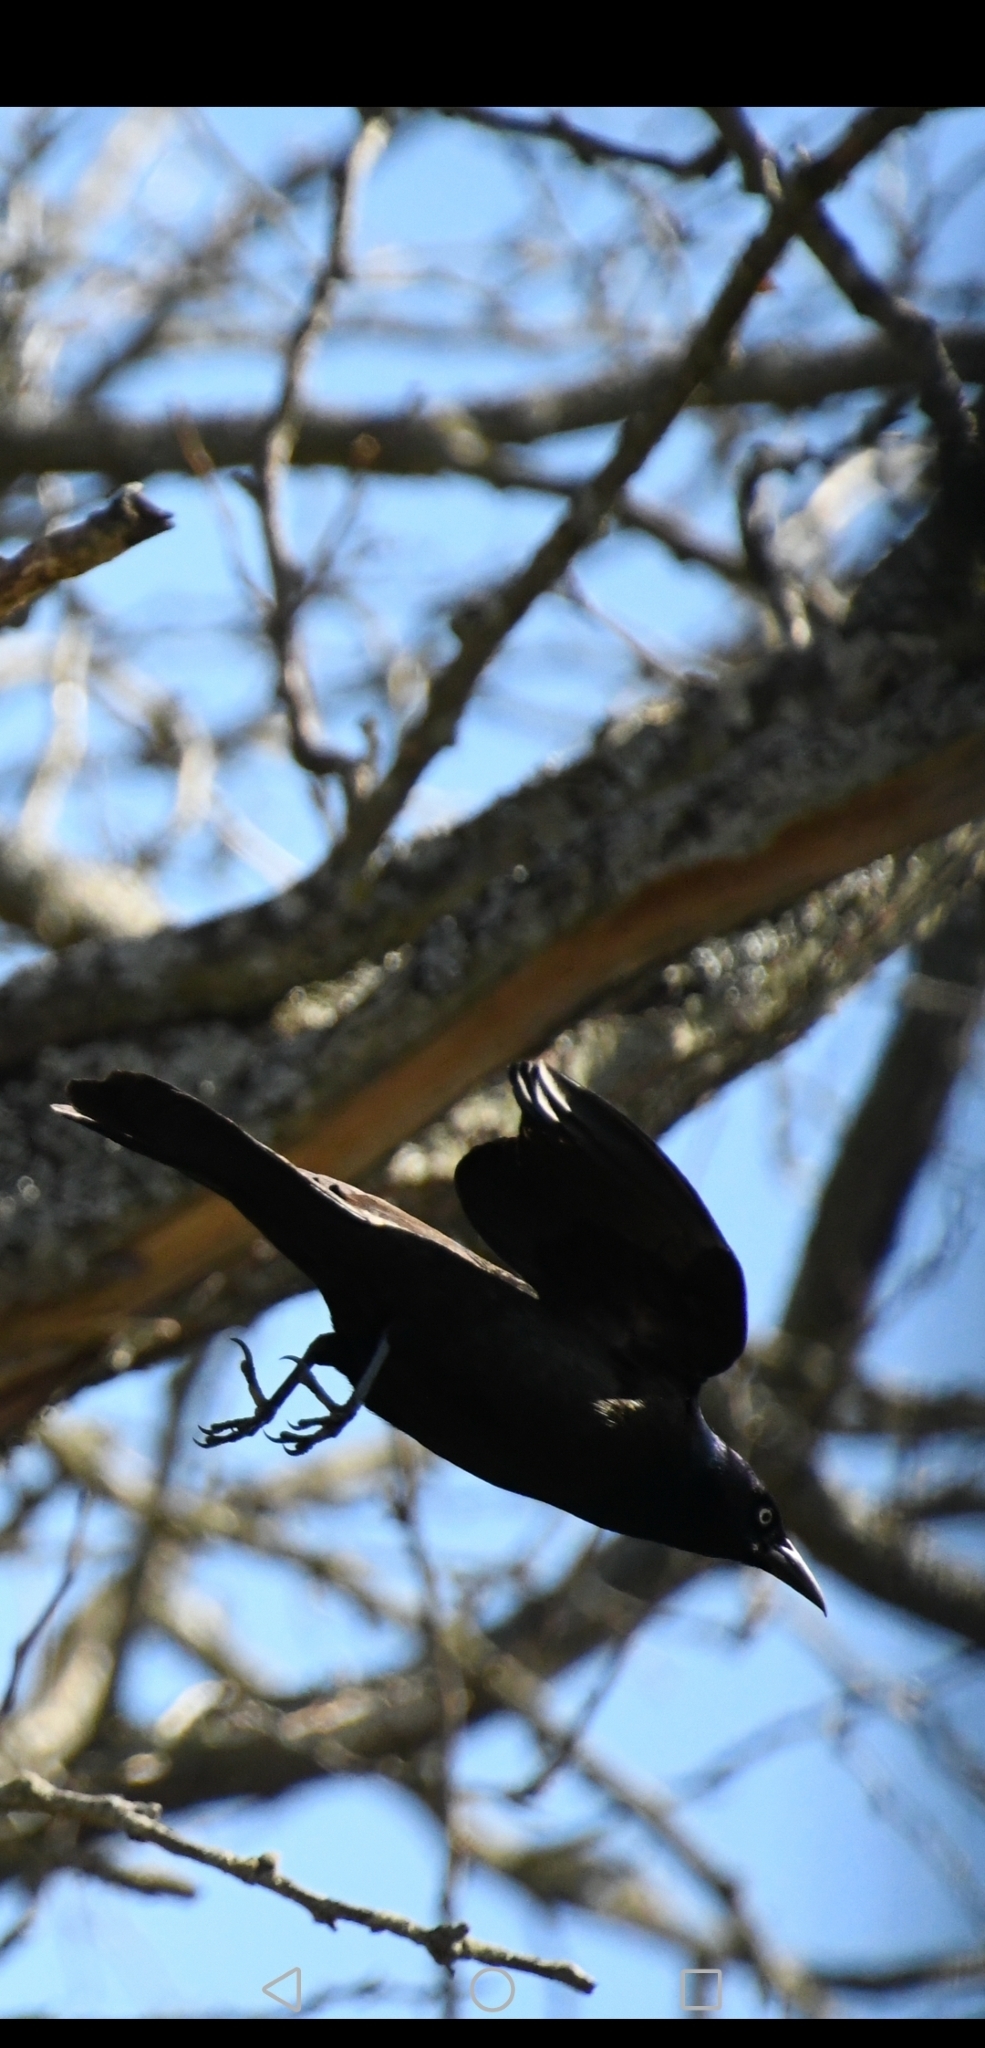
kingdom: Animalia
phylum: Chordata
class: Aves
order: Passeriformes
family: Icteridae
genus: Quiscalus
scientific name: Quiscalus quiscula
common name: Common grackle
